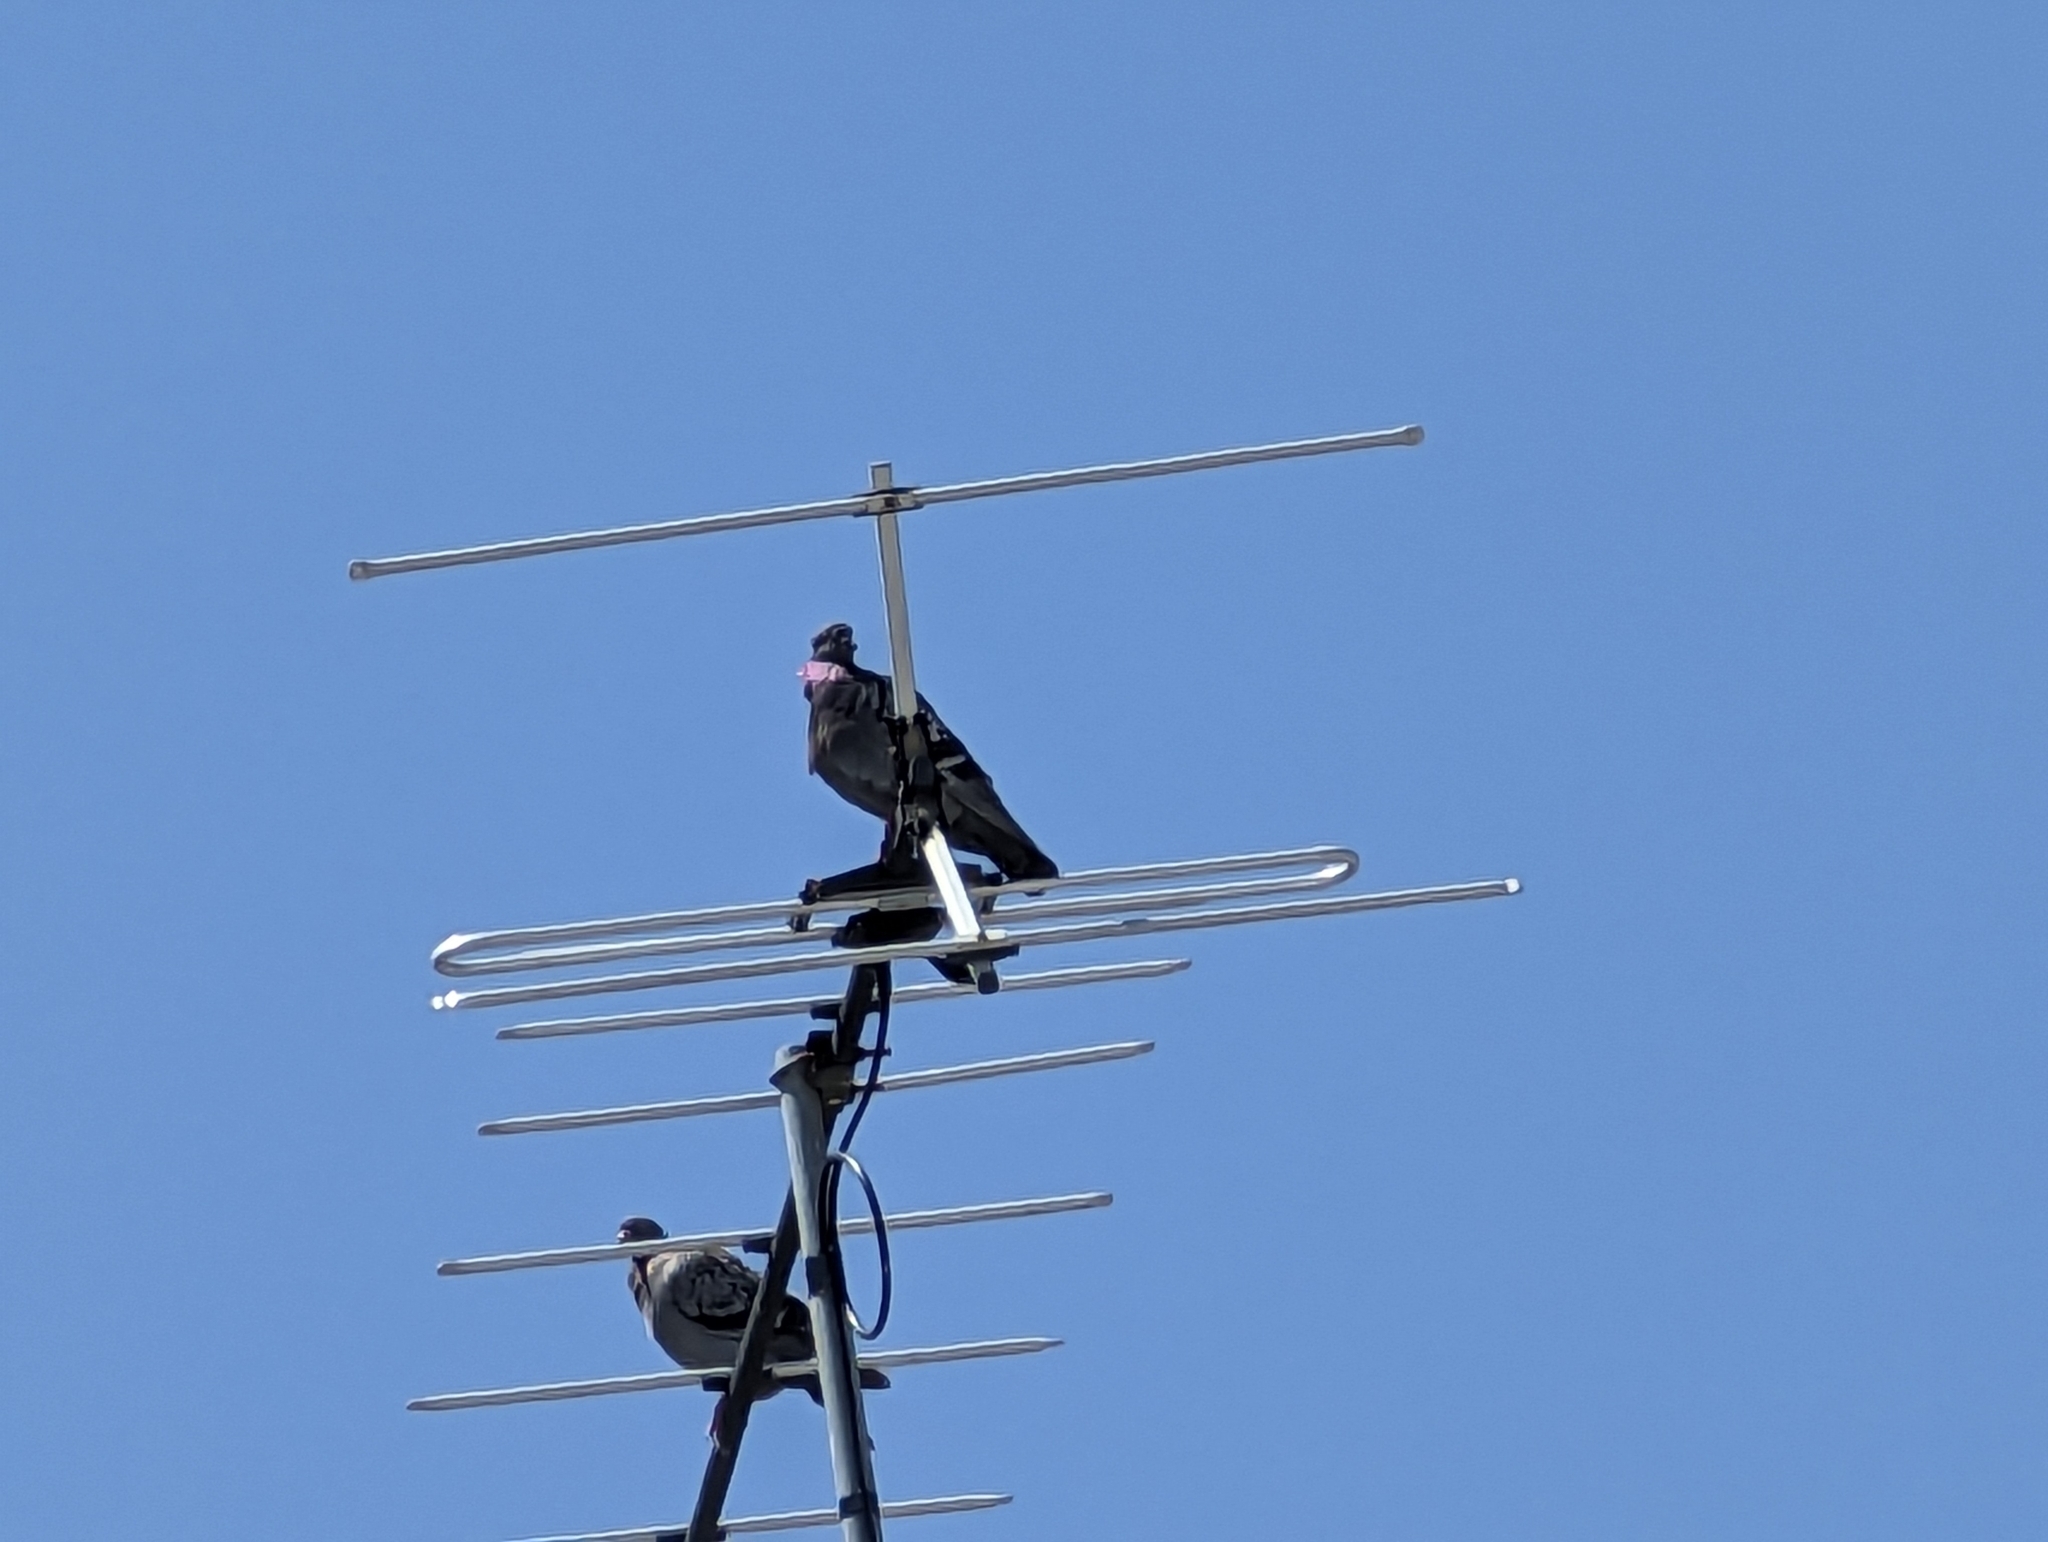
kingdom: Animalia
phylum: Chordata
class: Aves
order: Columbiformes
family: Columbidae
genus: Columba
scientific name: Columba livia
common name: Rock pigeon
